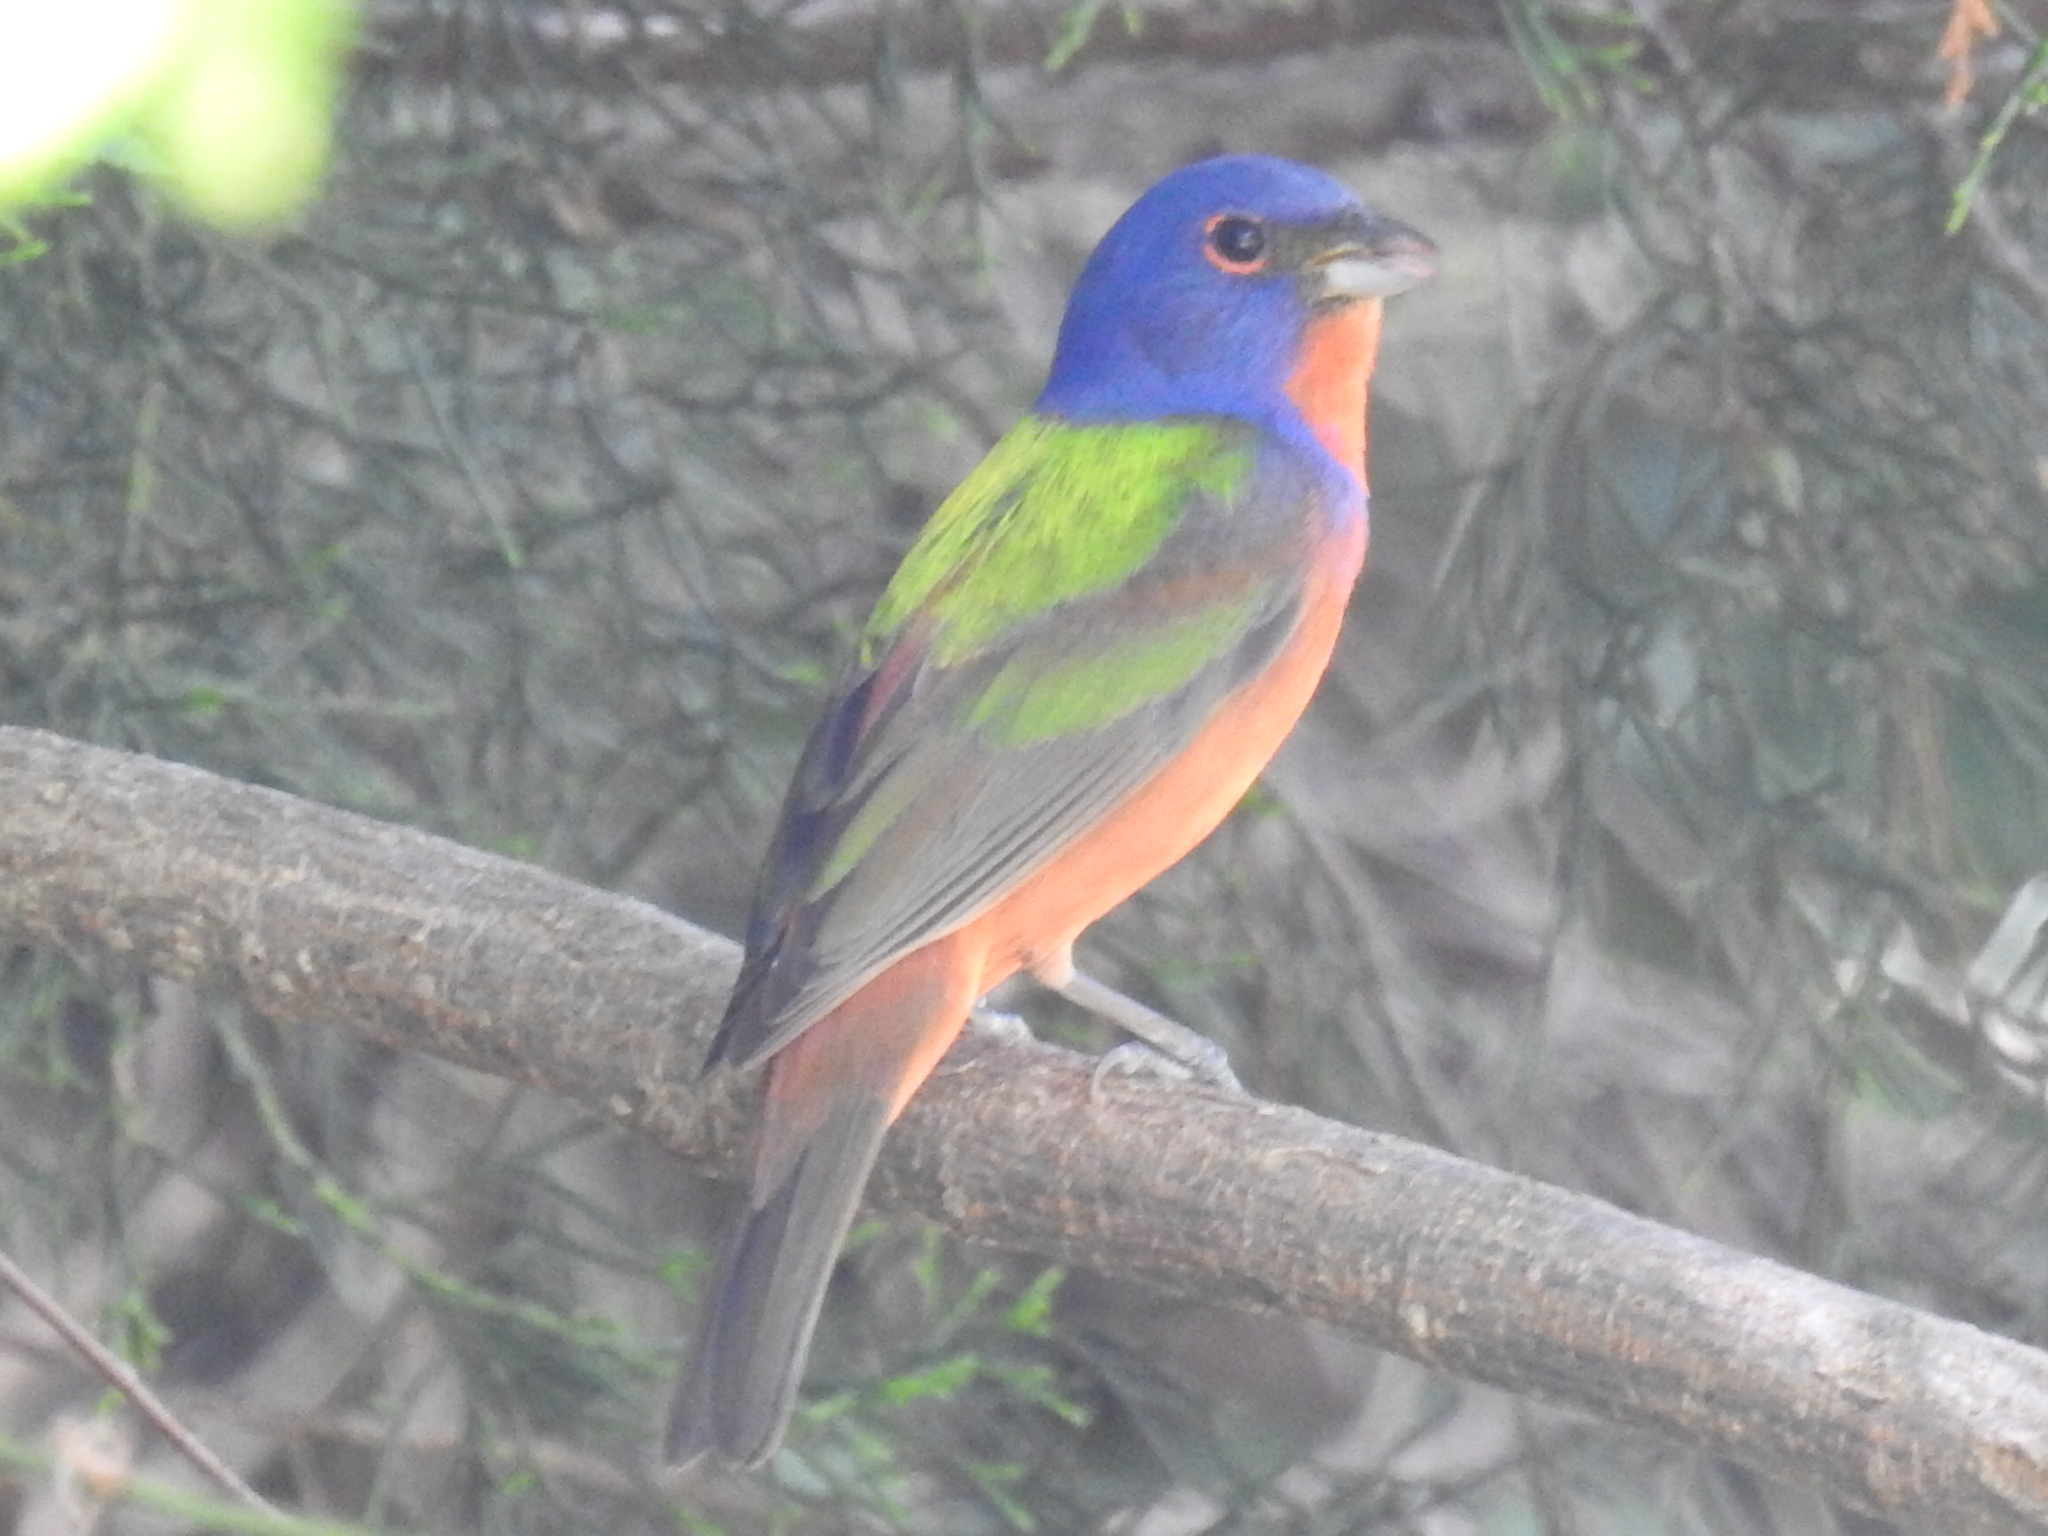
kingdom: Animalia
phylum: Chordata
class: Aves
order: Passeriformes
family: Cardinalidae
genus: Passerina
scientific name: Passerina ciris
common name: Painted bunting
